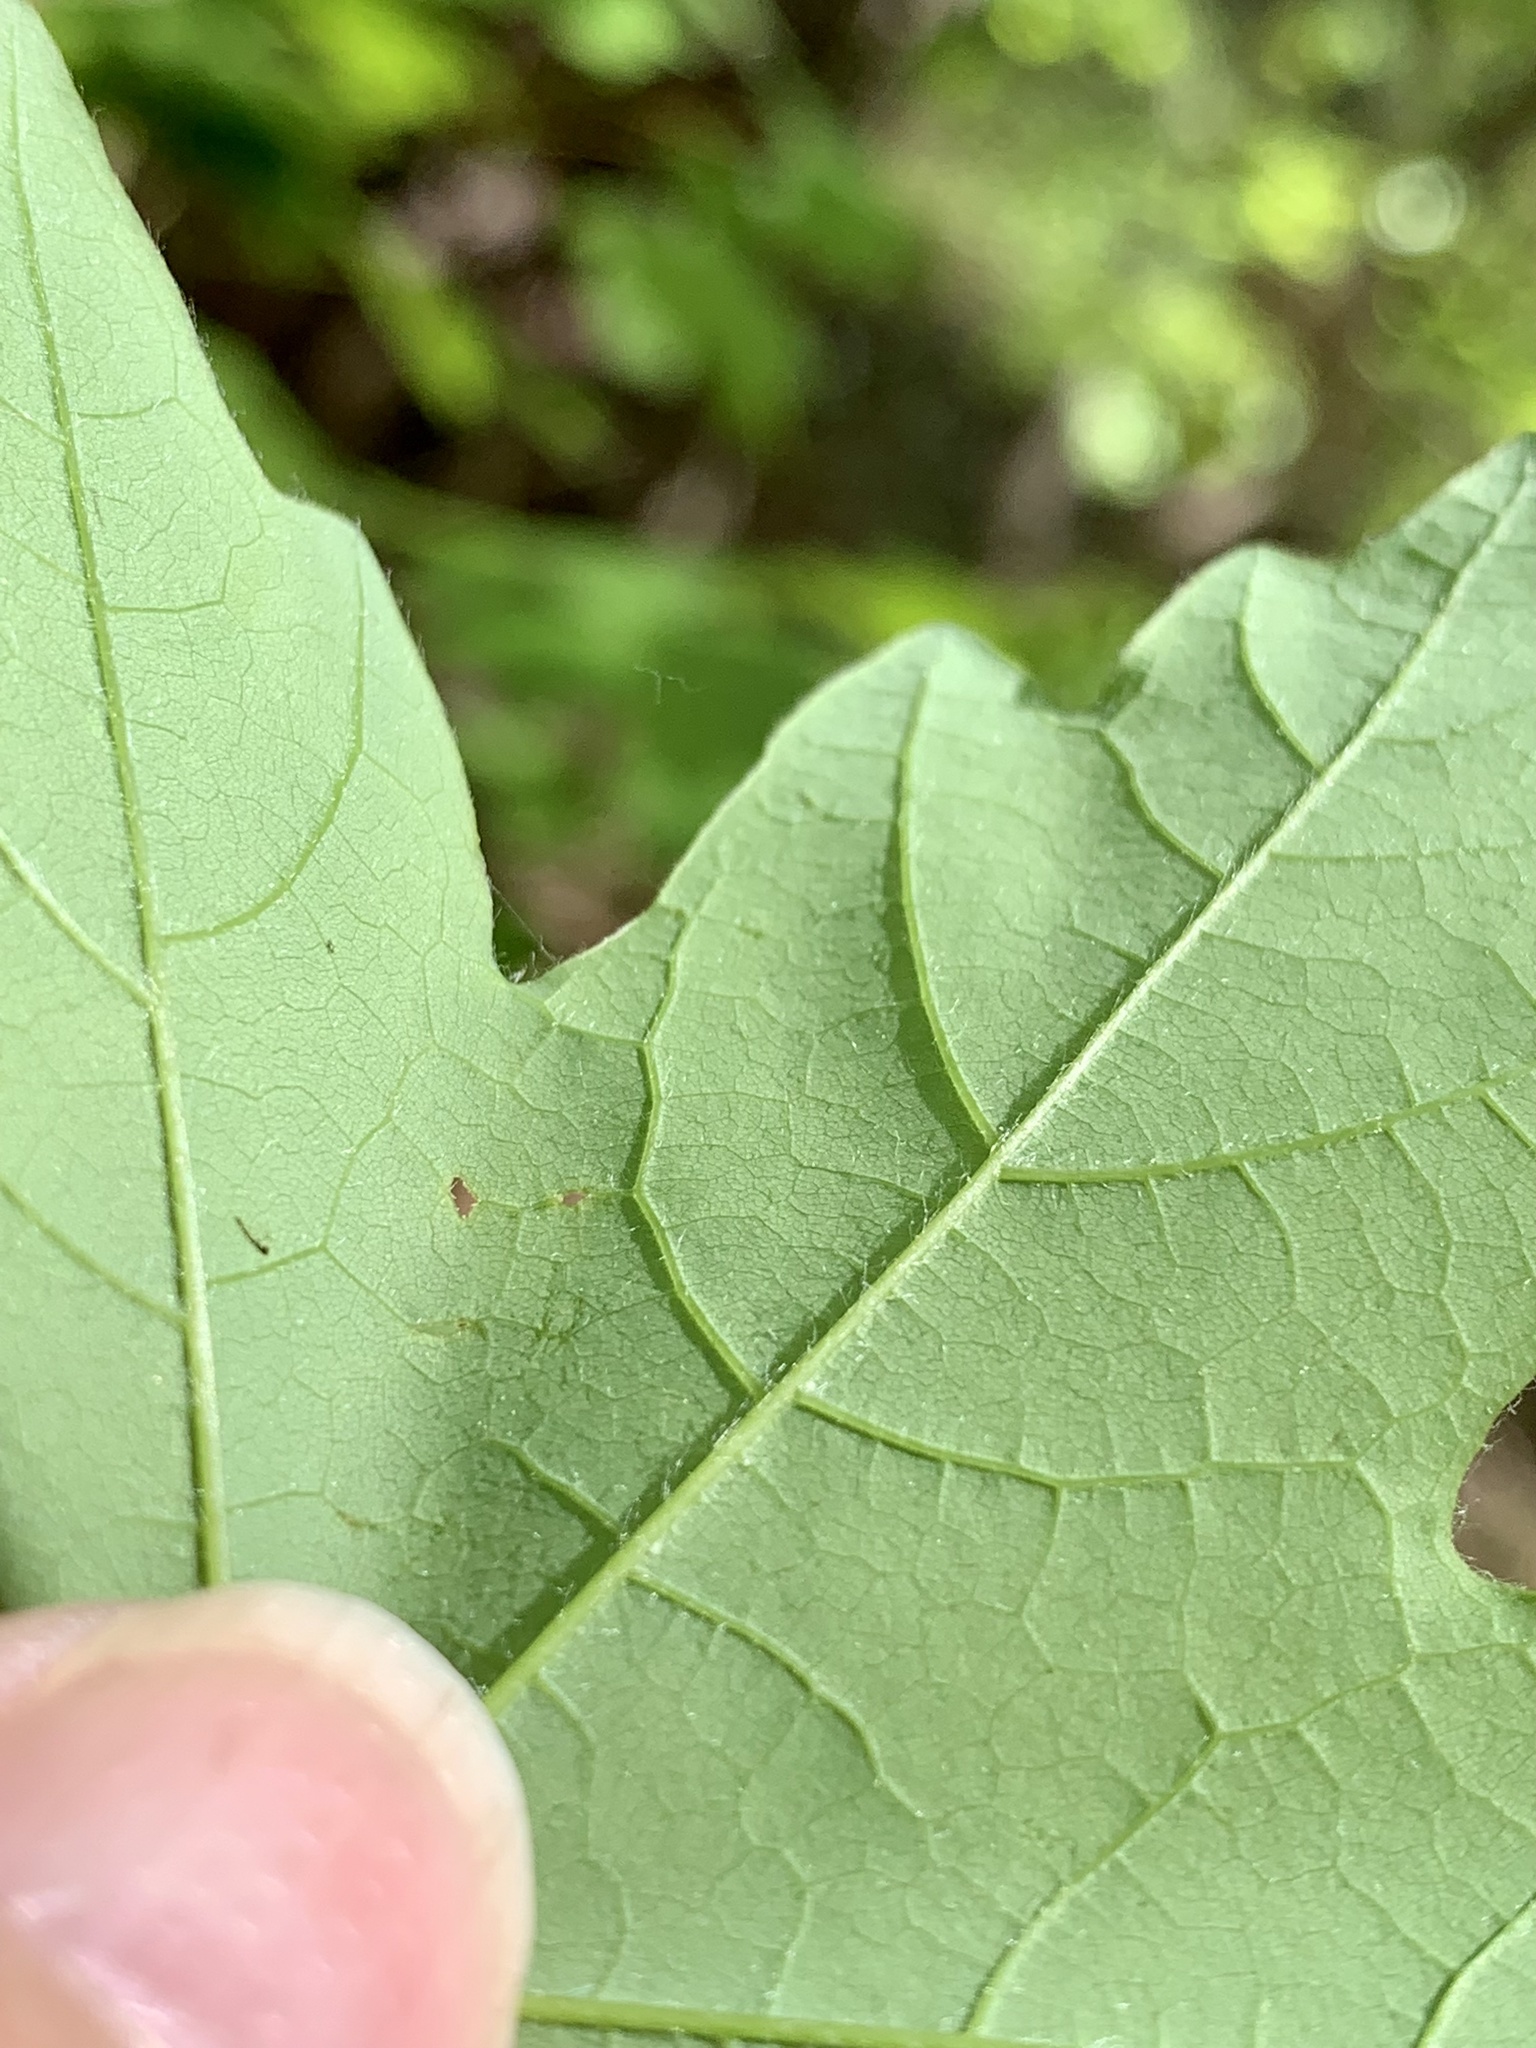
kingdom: Plantae
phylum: Tracheophyta
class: Magnoliopsida
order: Sapindales
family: Sapindaceae
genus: Acer
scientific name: Acer floridanum
